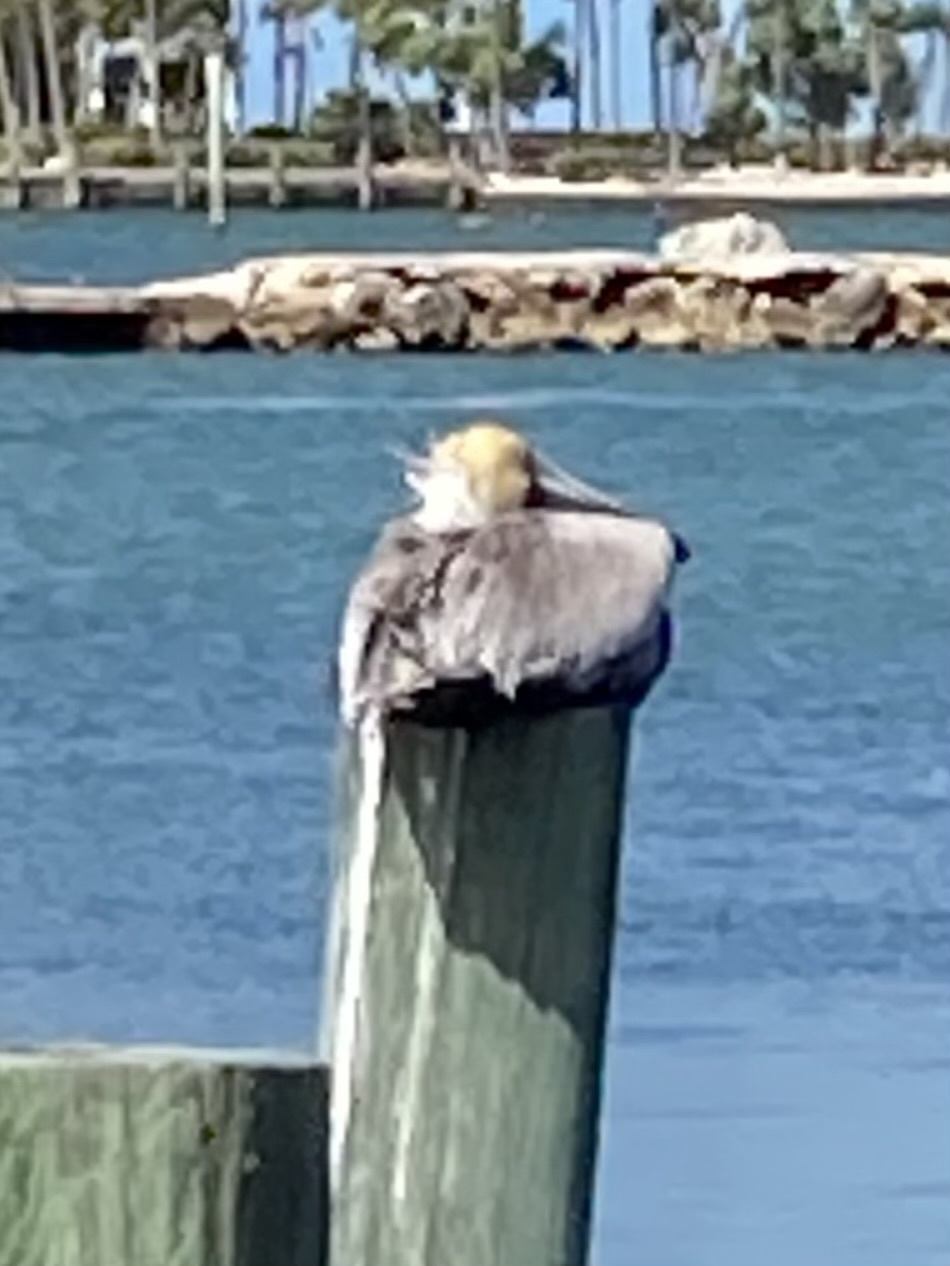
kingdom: Animalia
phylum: Chordata
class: Aves
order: Pelecaniformes
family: Pelecanidae
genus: Pelecanus
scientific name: Pelecanus occidentalis
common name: Brown pelican
